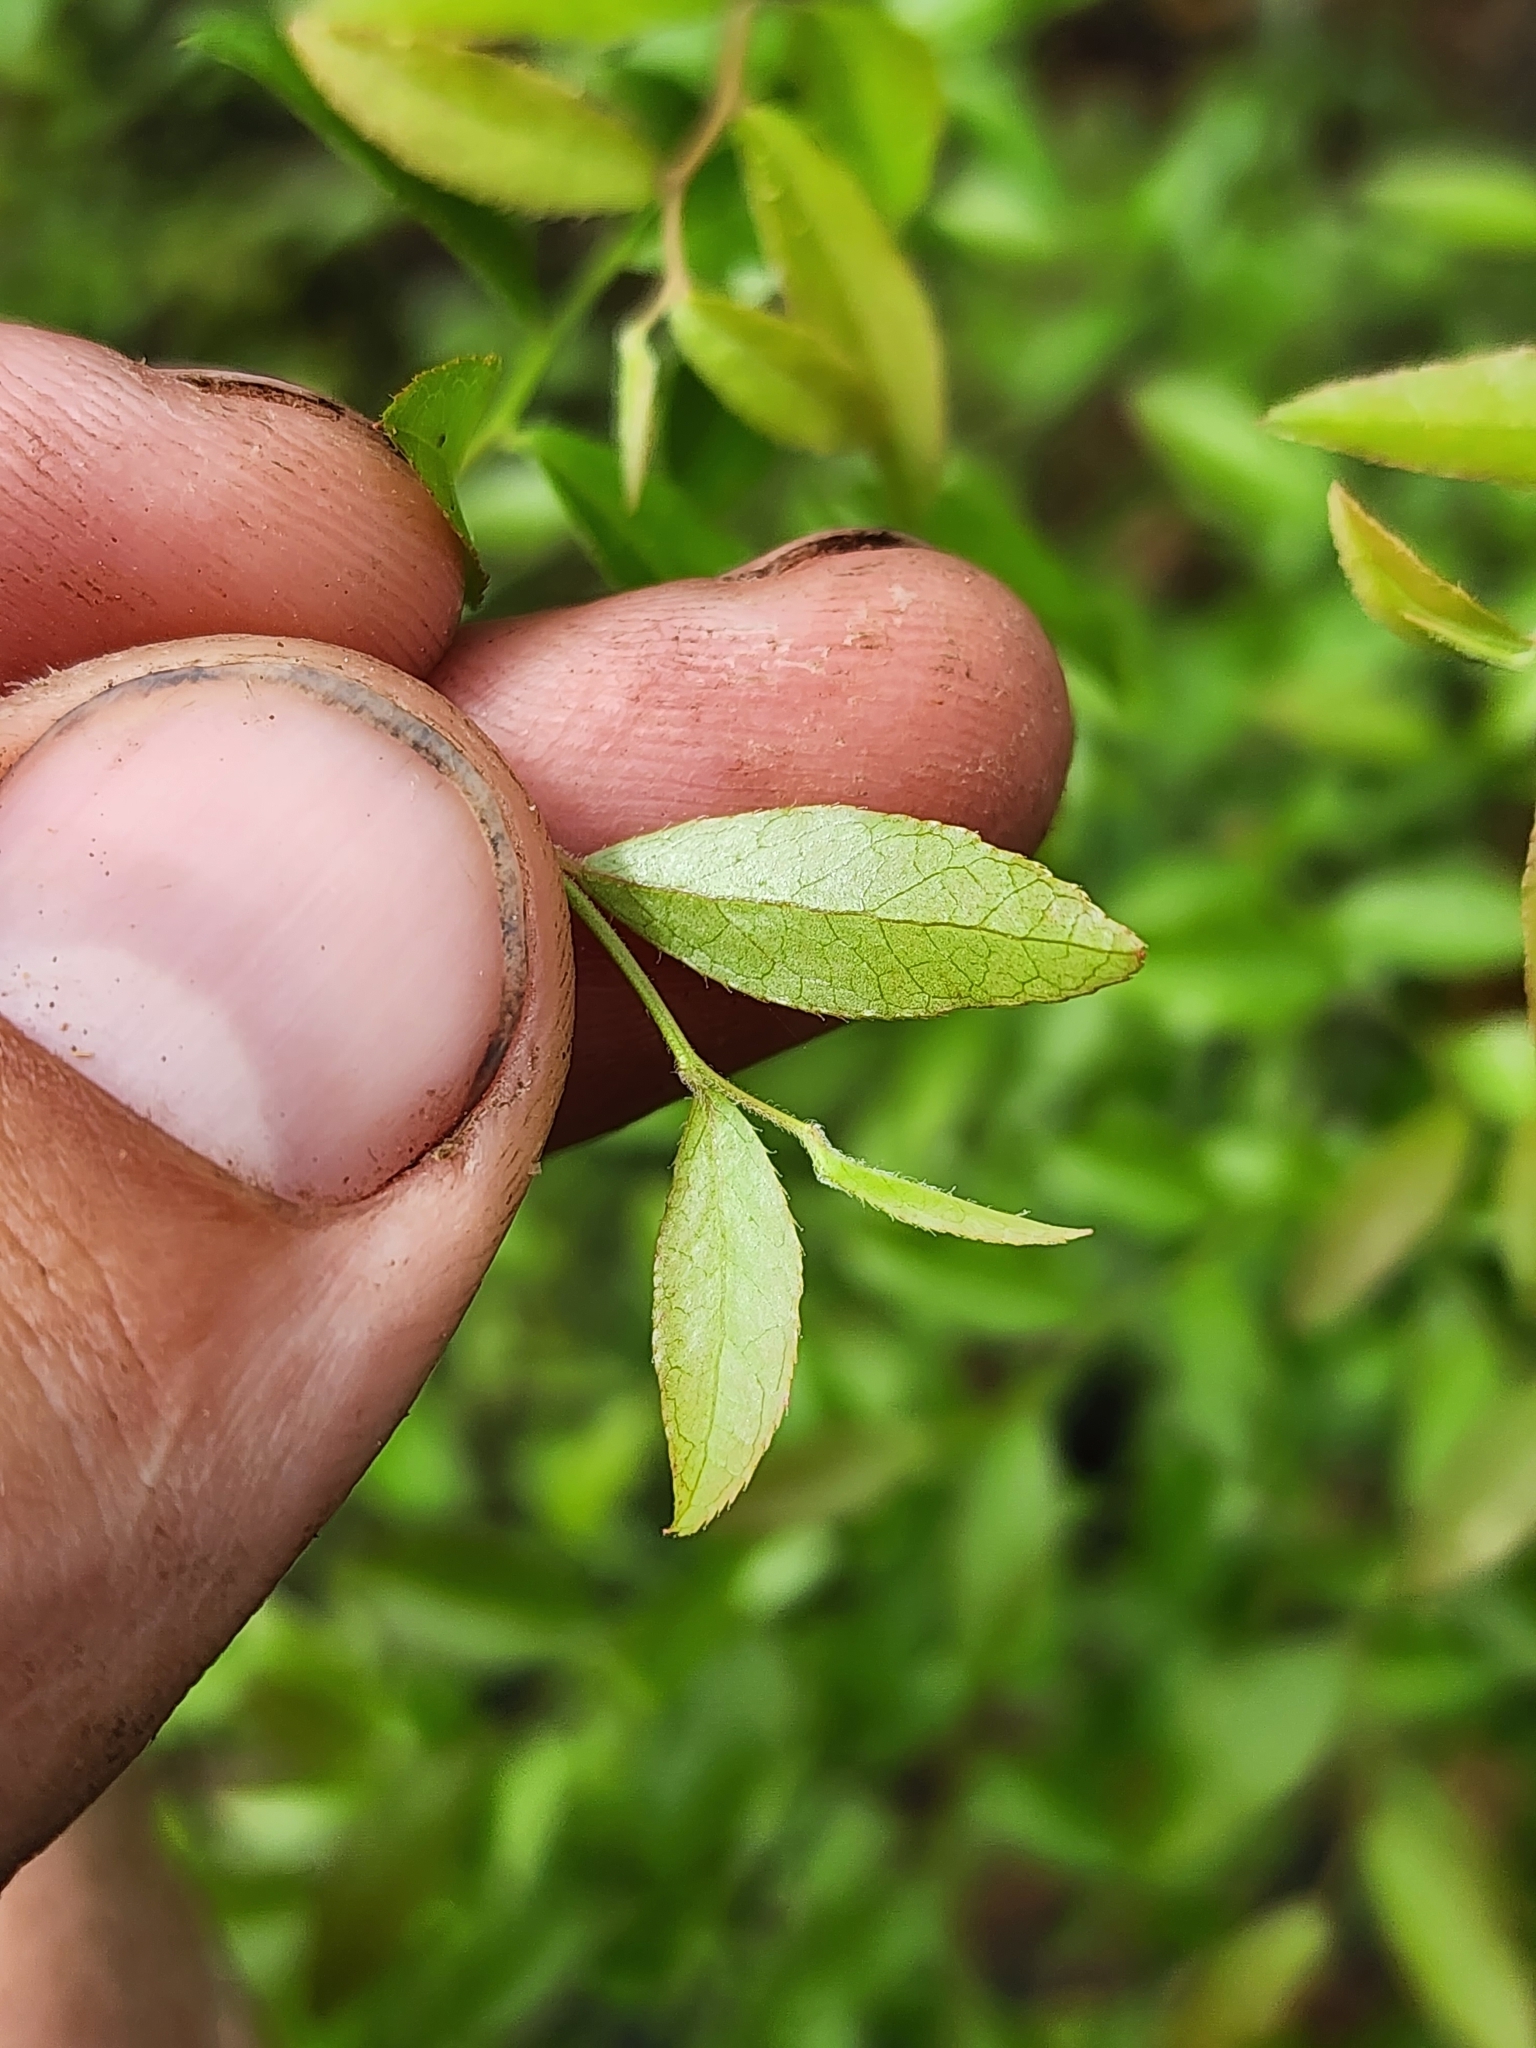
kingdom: Plantae
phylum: Tracheophyta
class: Magnoliopsida
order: Ericales
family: Ericaceae
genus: Vaccinium
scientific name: Vaccinium corymbosum
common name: Blueberry
